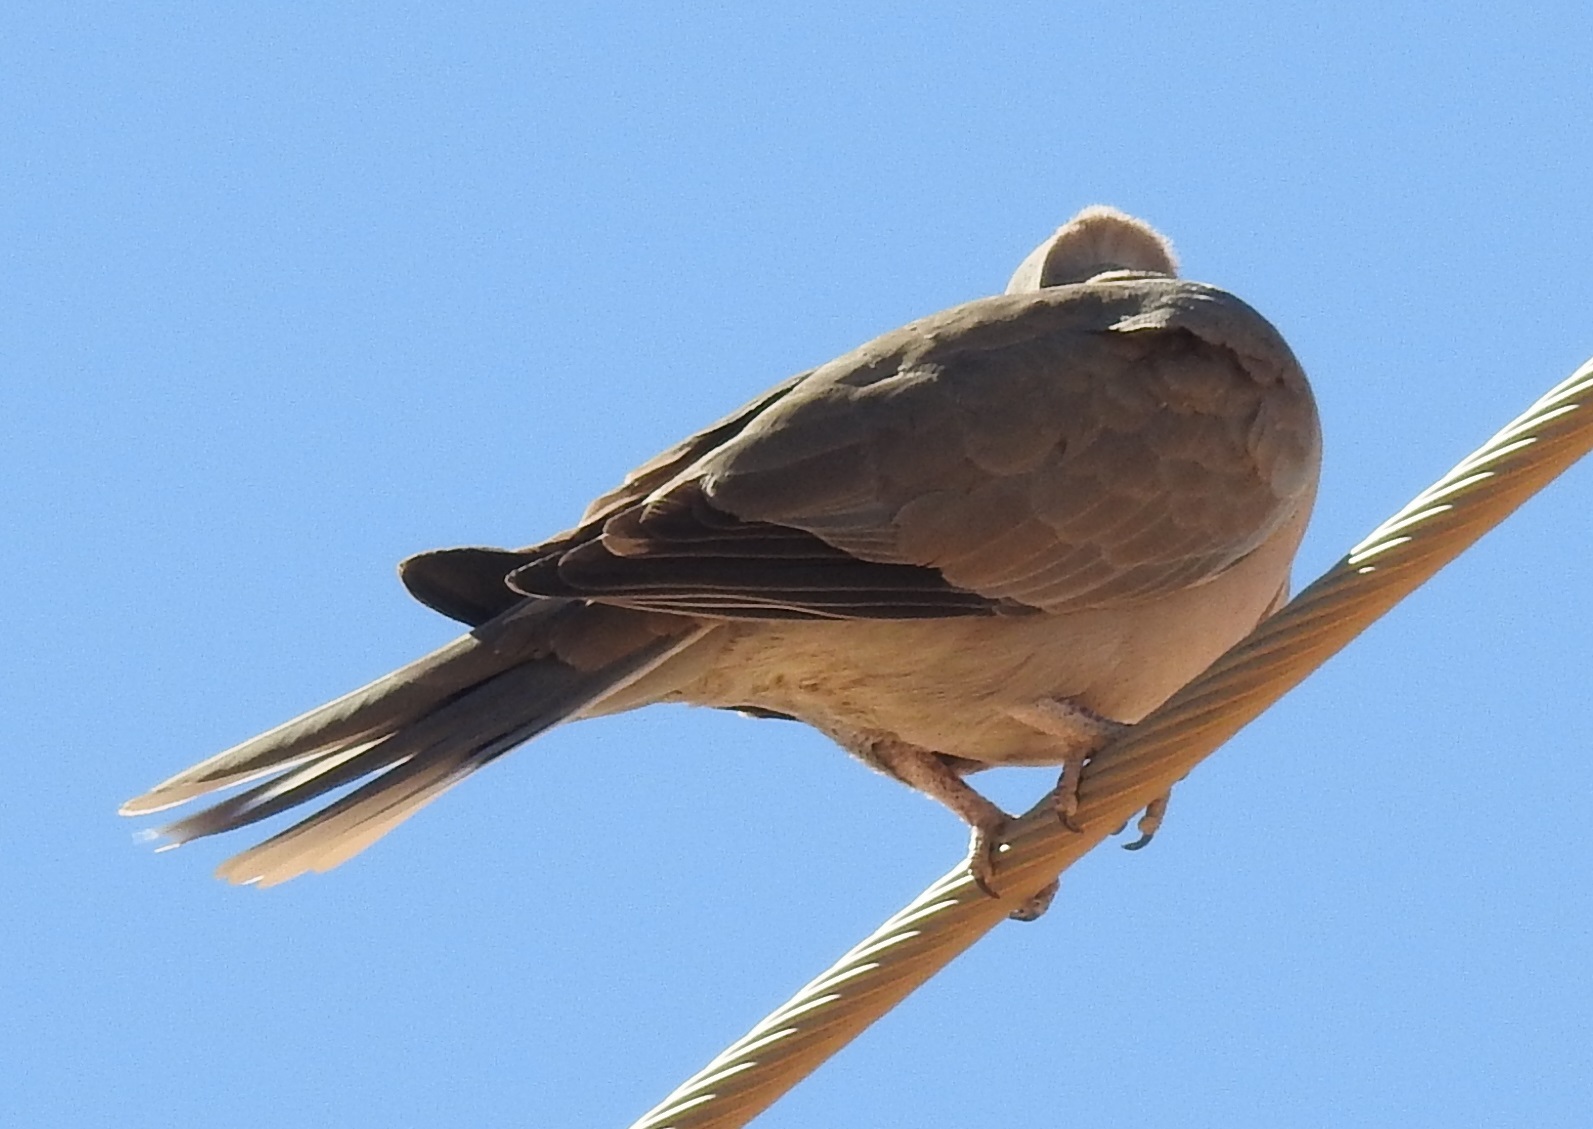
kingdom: Animalia
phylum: Chordata
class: Aves
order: Columbiformes
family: Columbidae
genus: Streptopelia
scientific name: Streptopelia decaocto
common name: Eurasian collared dove
